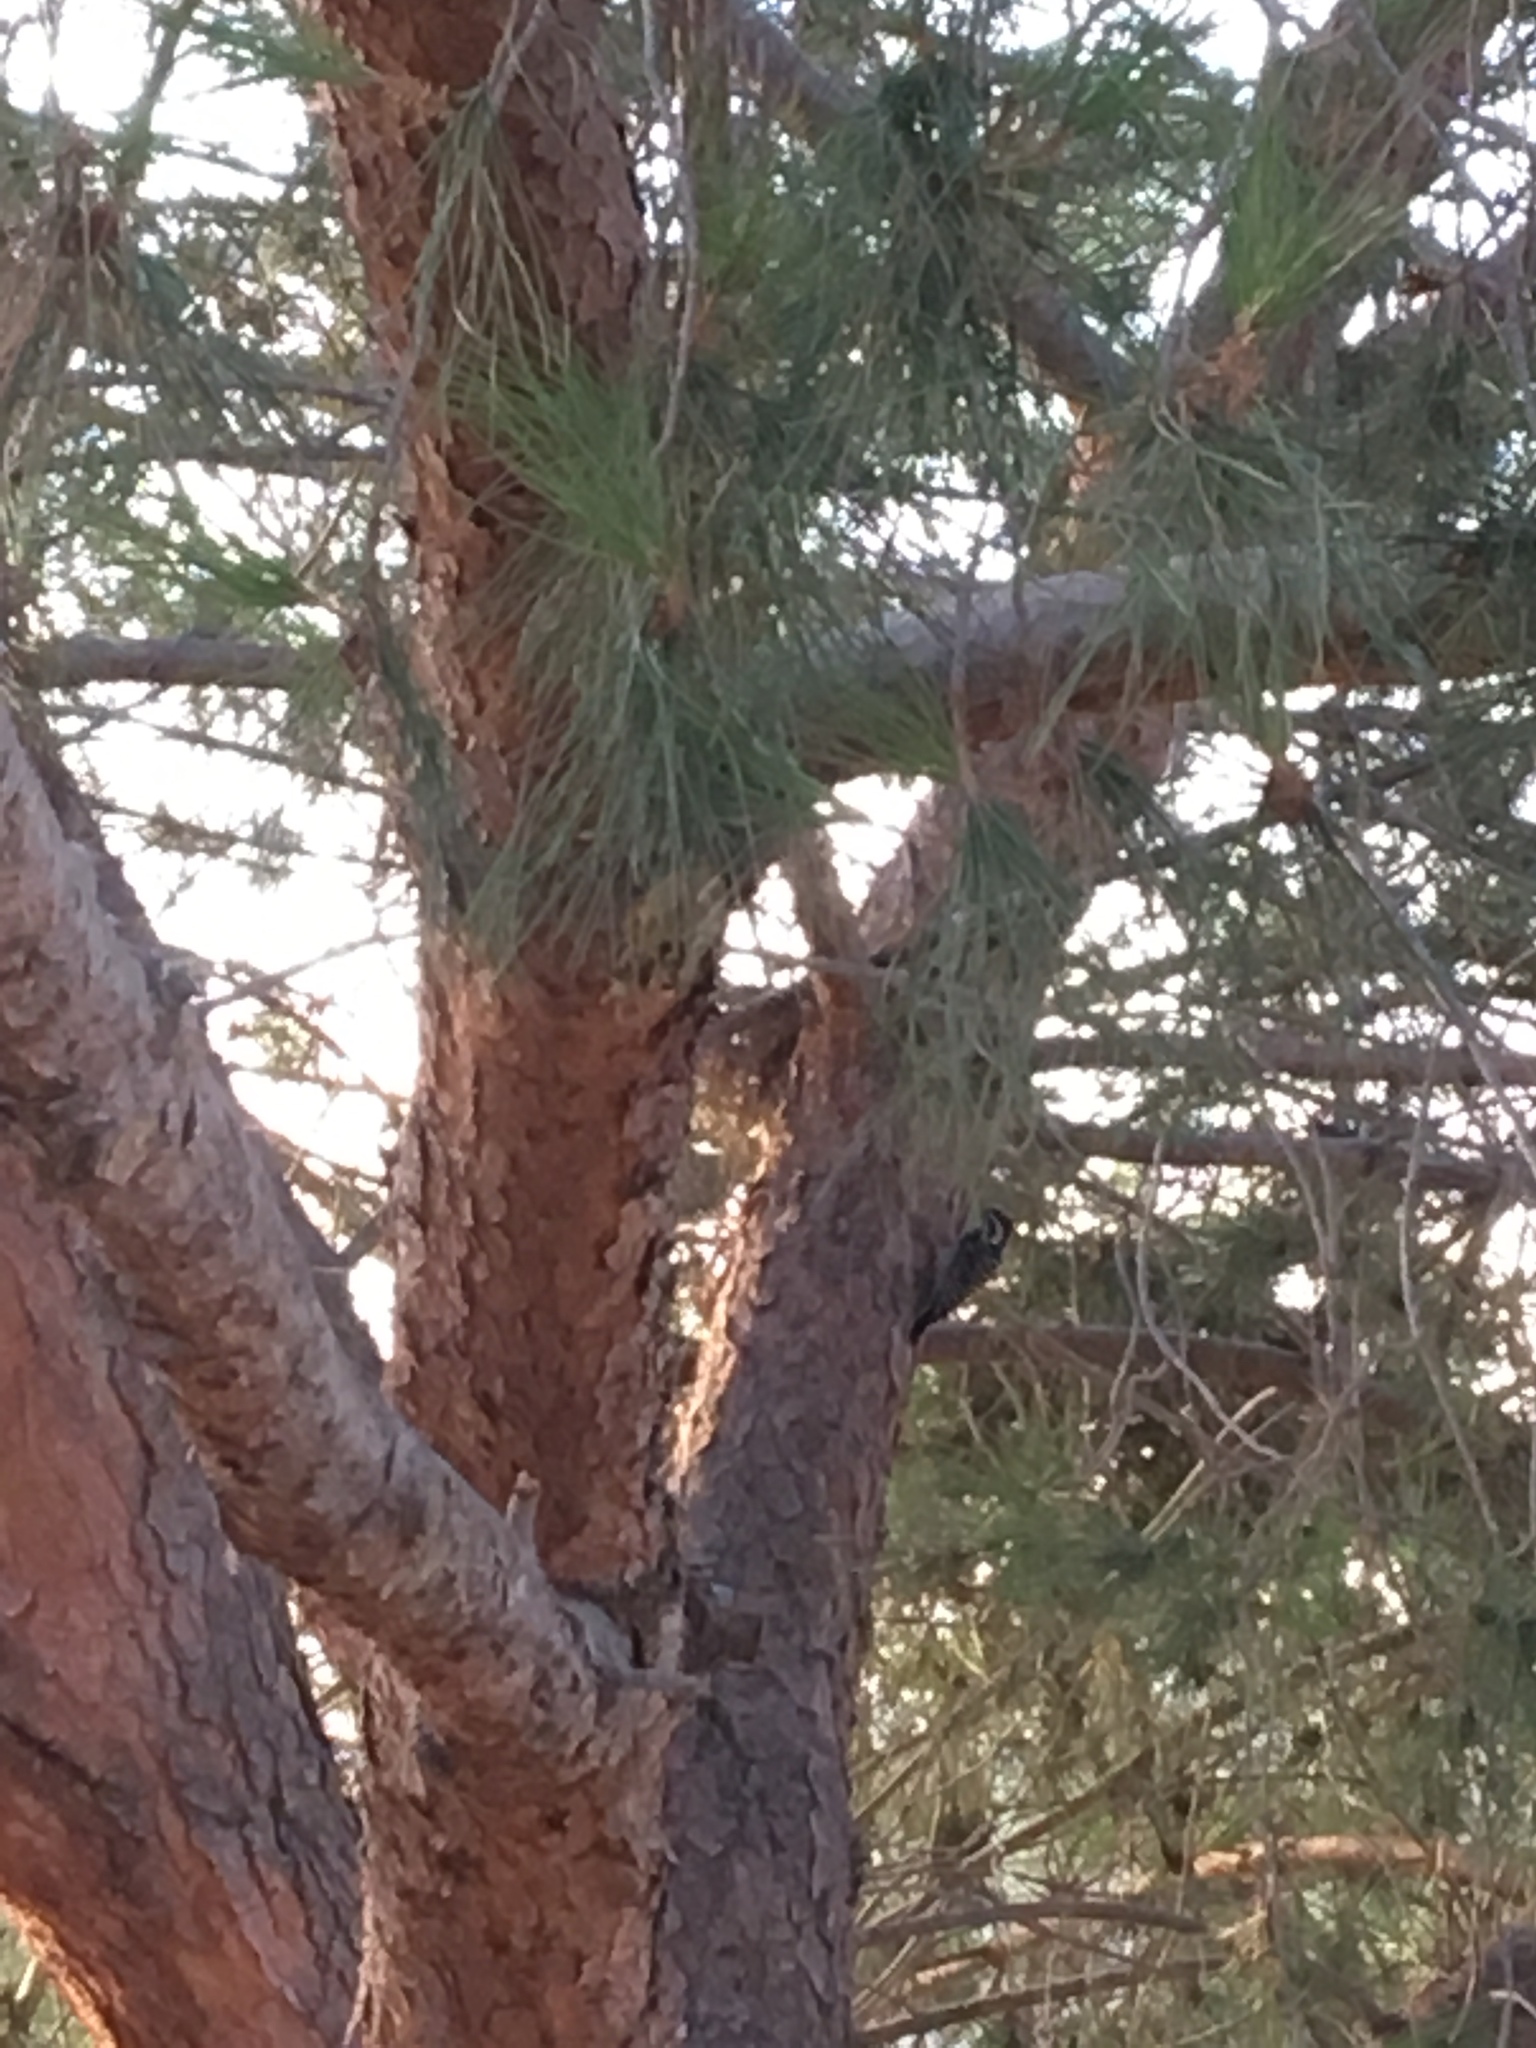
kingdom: Animalia
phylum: Chordata
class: Aves
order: Piciformes
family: Picidae
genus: Dryobates
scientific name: Dryobates nuttallii
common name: Nuttall's woodpecker
